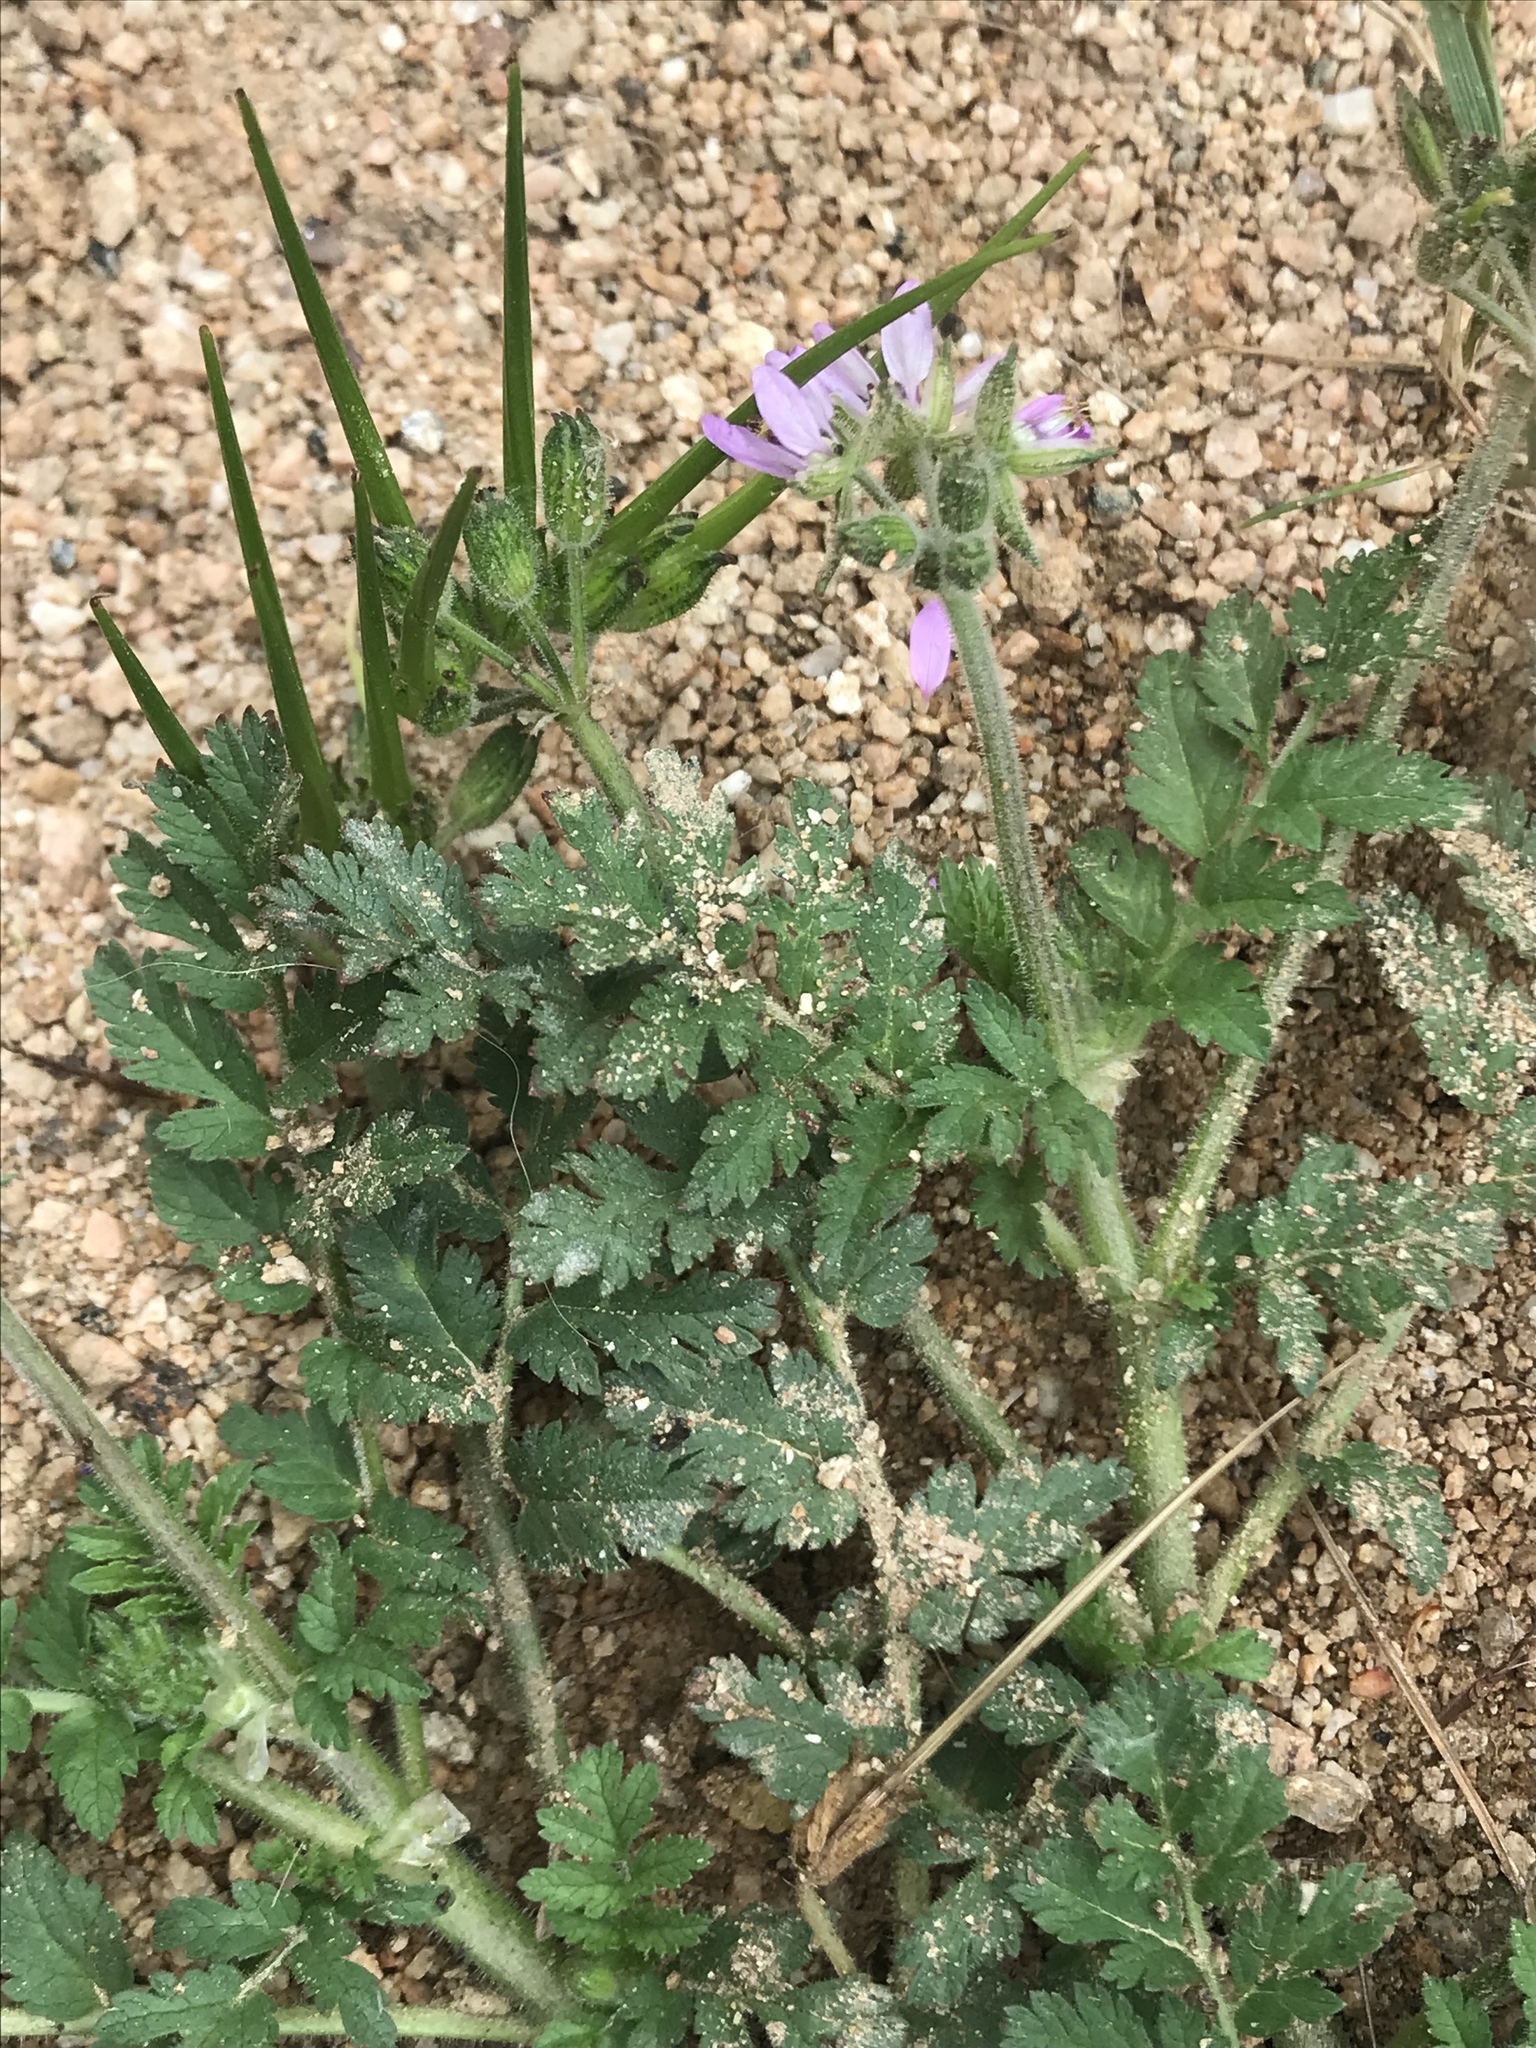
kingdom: Plantae
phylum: Tracheophyta
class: Magnoliopsida
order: Geraniales
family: Geraniaceae
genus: Erodium
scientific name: Erodium moschatum
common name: Musk stork's-bill
